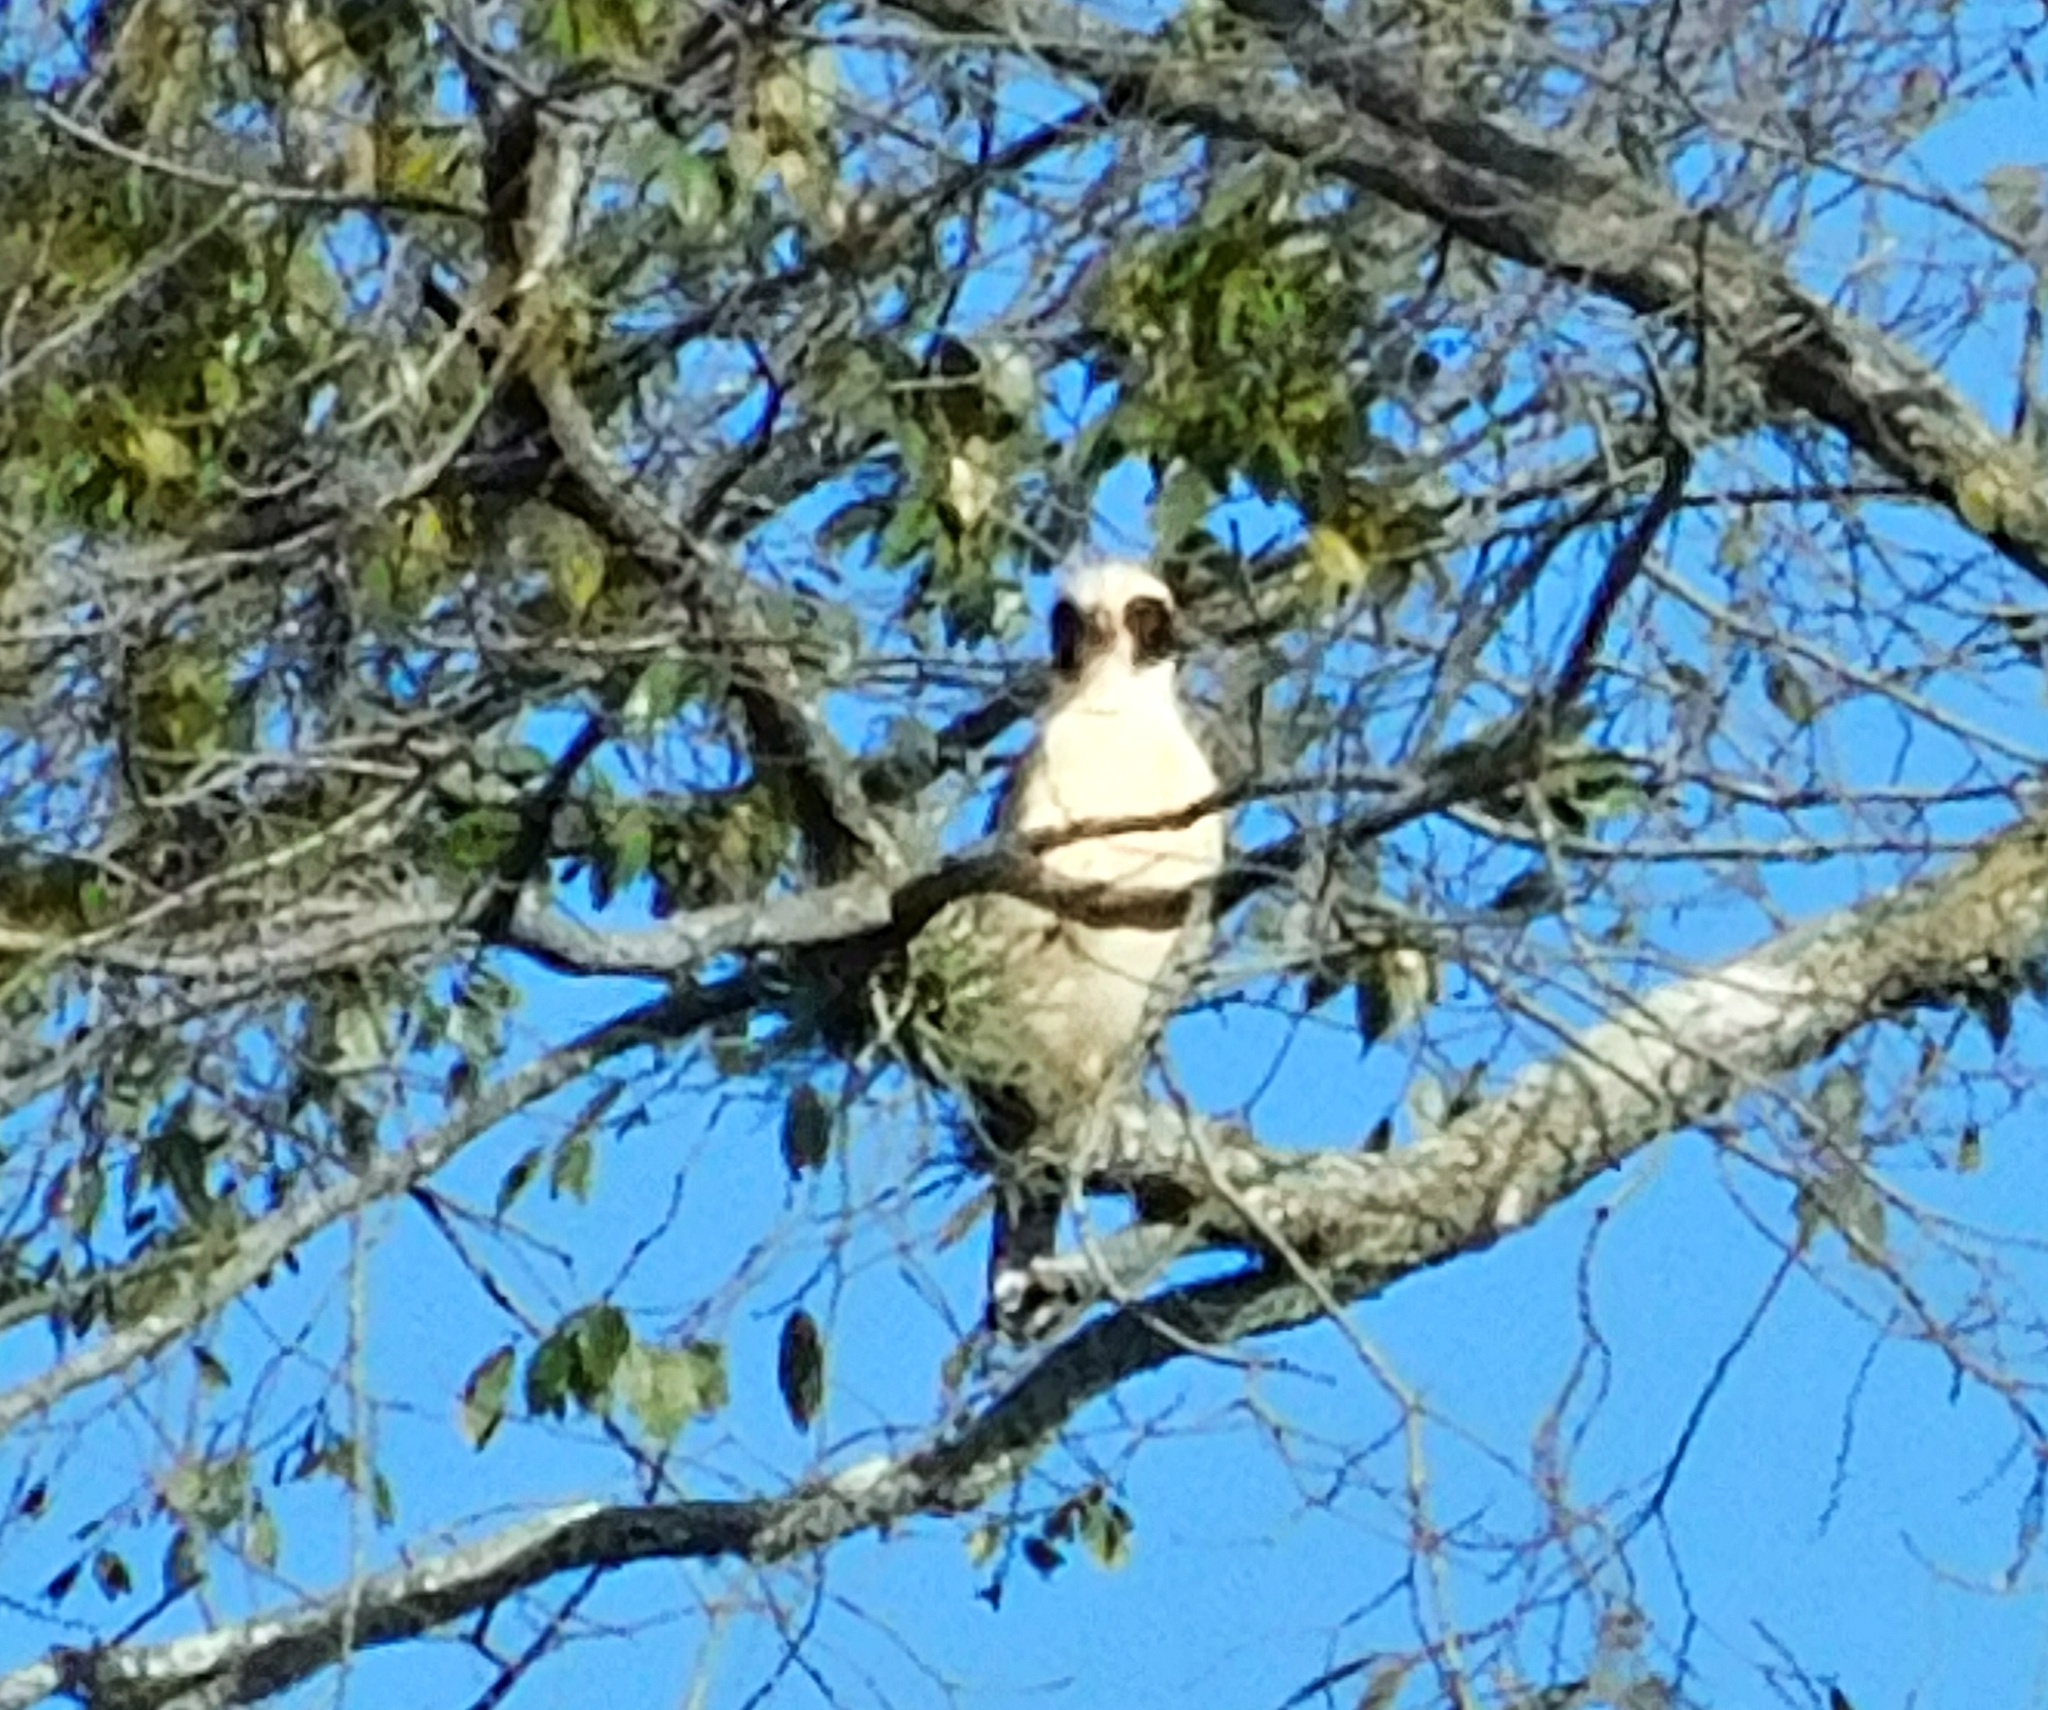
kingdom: Animalia
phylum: Chordata
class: Aves
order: Falconiformes
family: Falconidae
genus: Herpetotheres
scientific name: Herpetotheres cachinnans
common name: Laughing falcon
